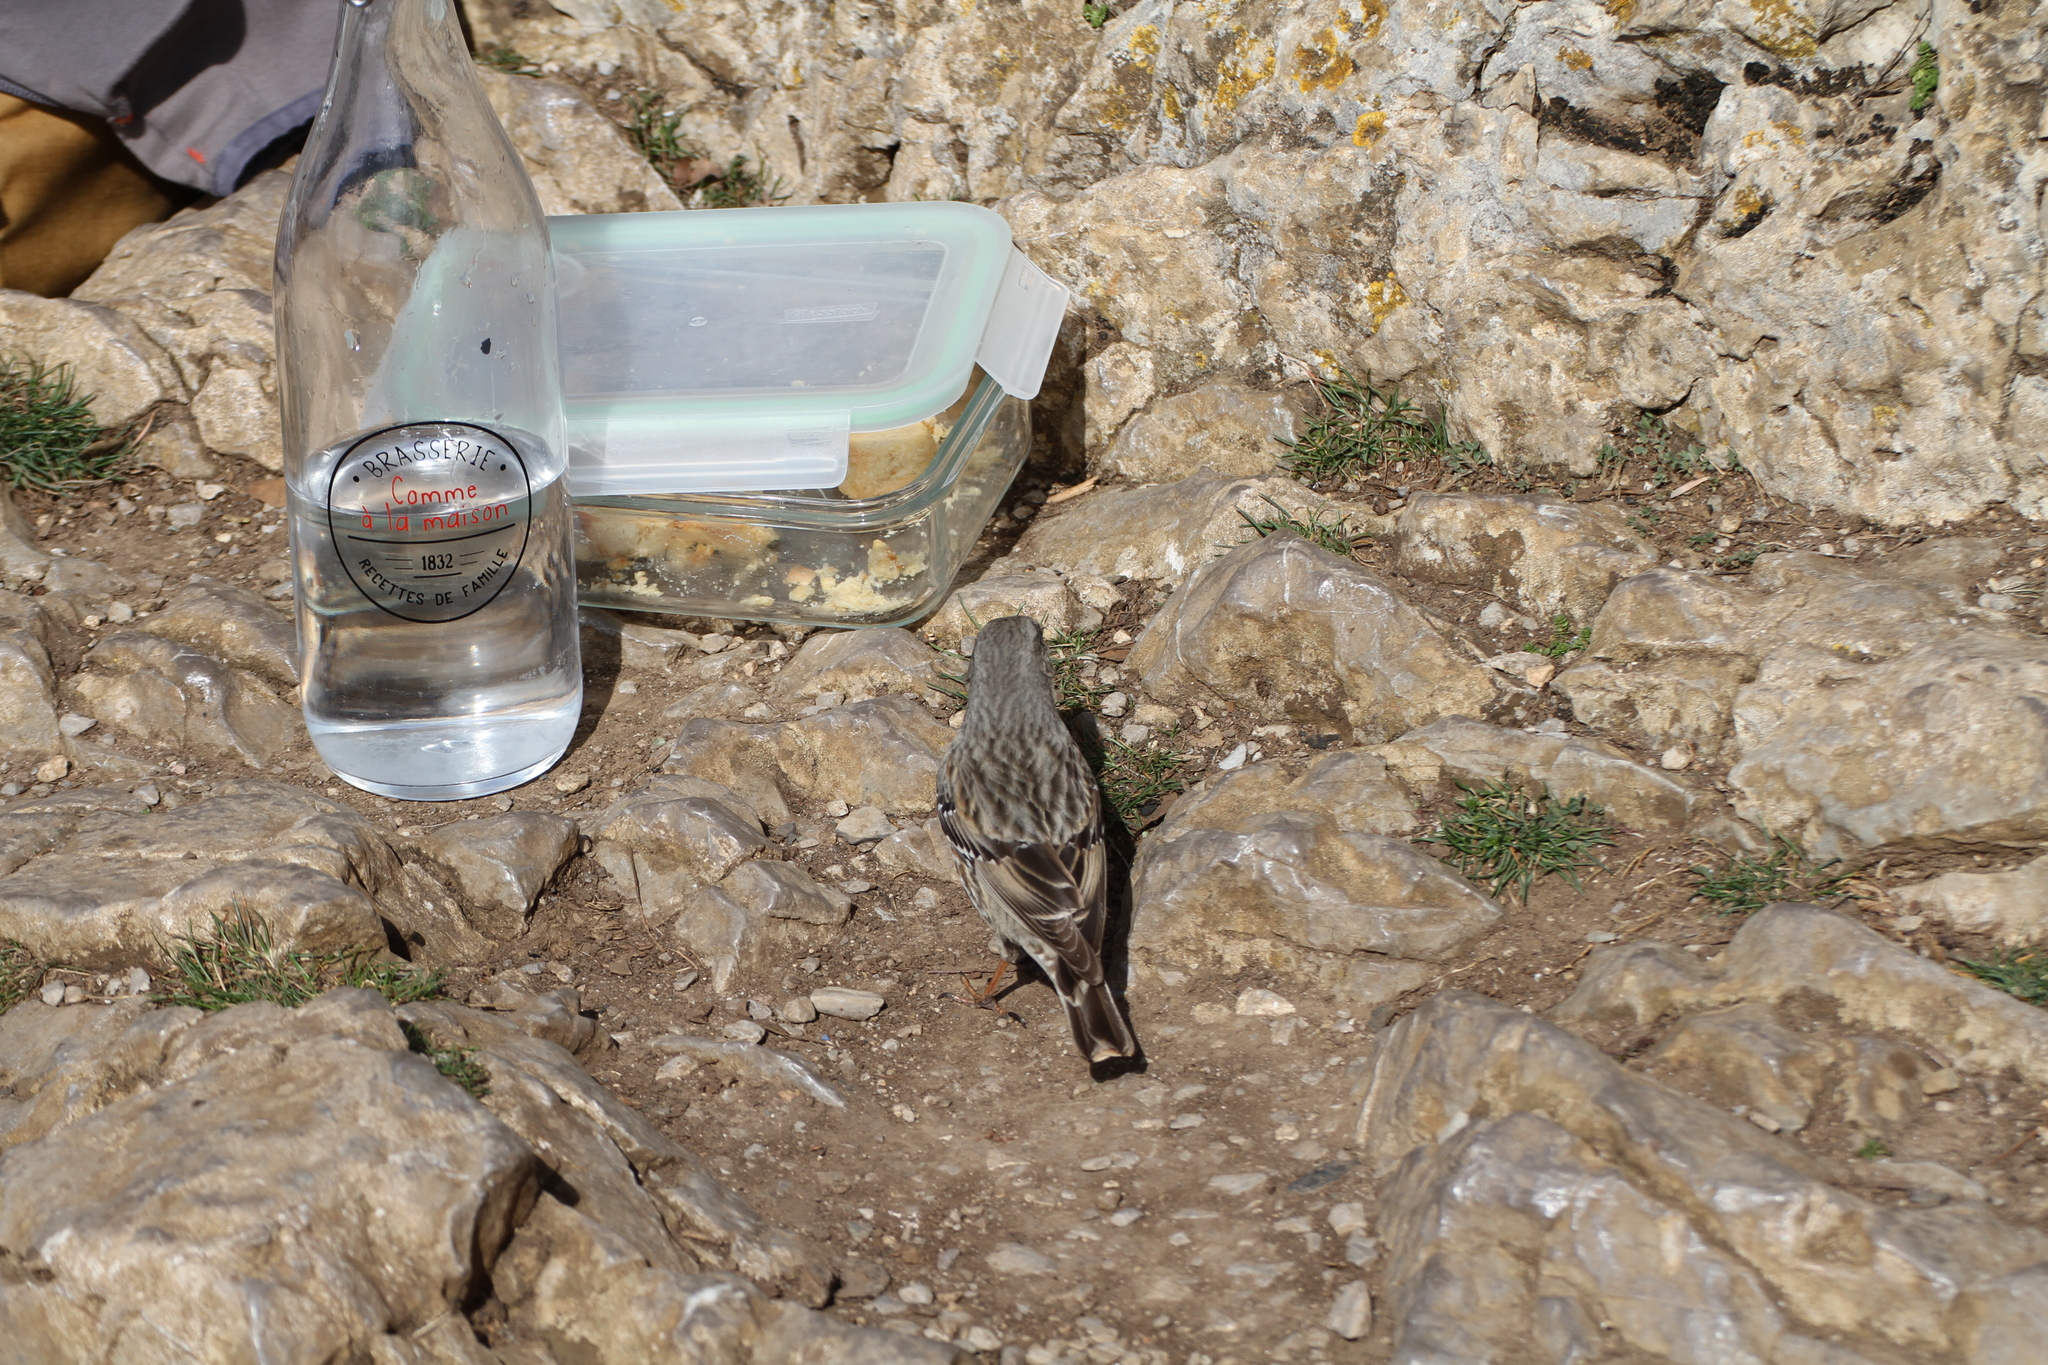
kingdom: Animalia
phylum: Chordata
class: Aves
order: Passeriformes
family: Prunellidae
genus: Prunella
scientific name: Prunella collaris
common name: Alpine accentor
